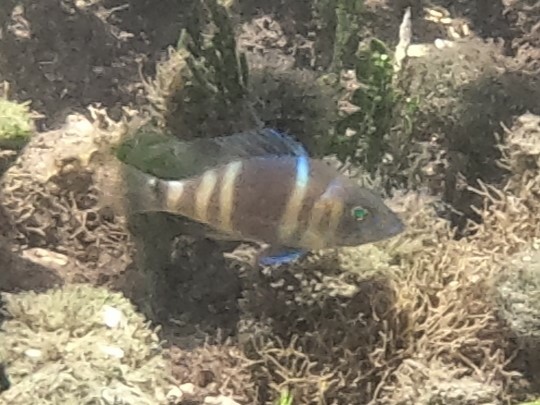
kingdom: Animalia
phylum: Chordata
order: Perciformes
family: Serranidae
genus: Hypoplectrus
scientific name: Hypoplectrus puella
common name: Barred hamlet
